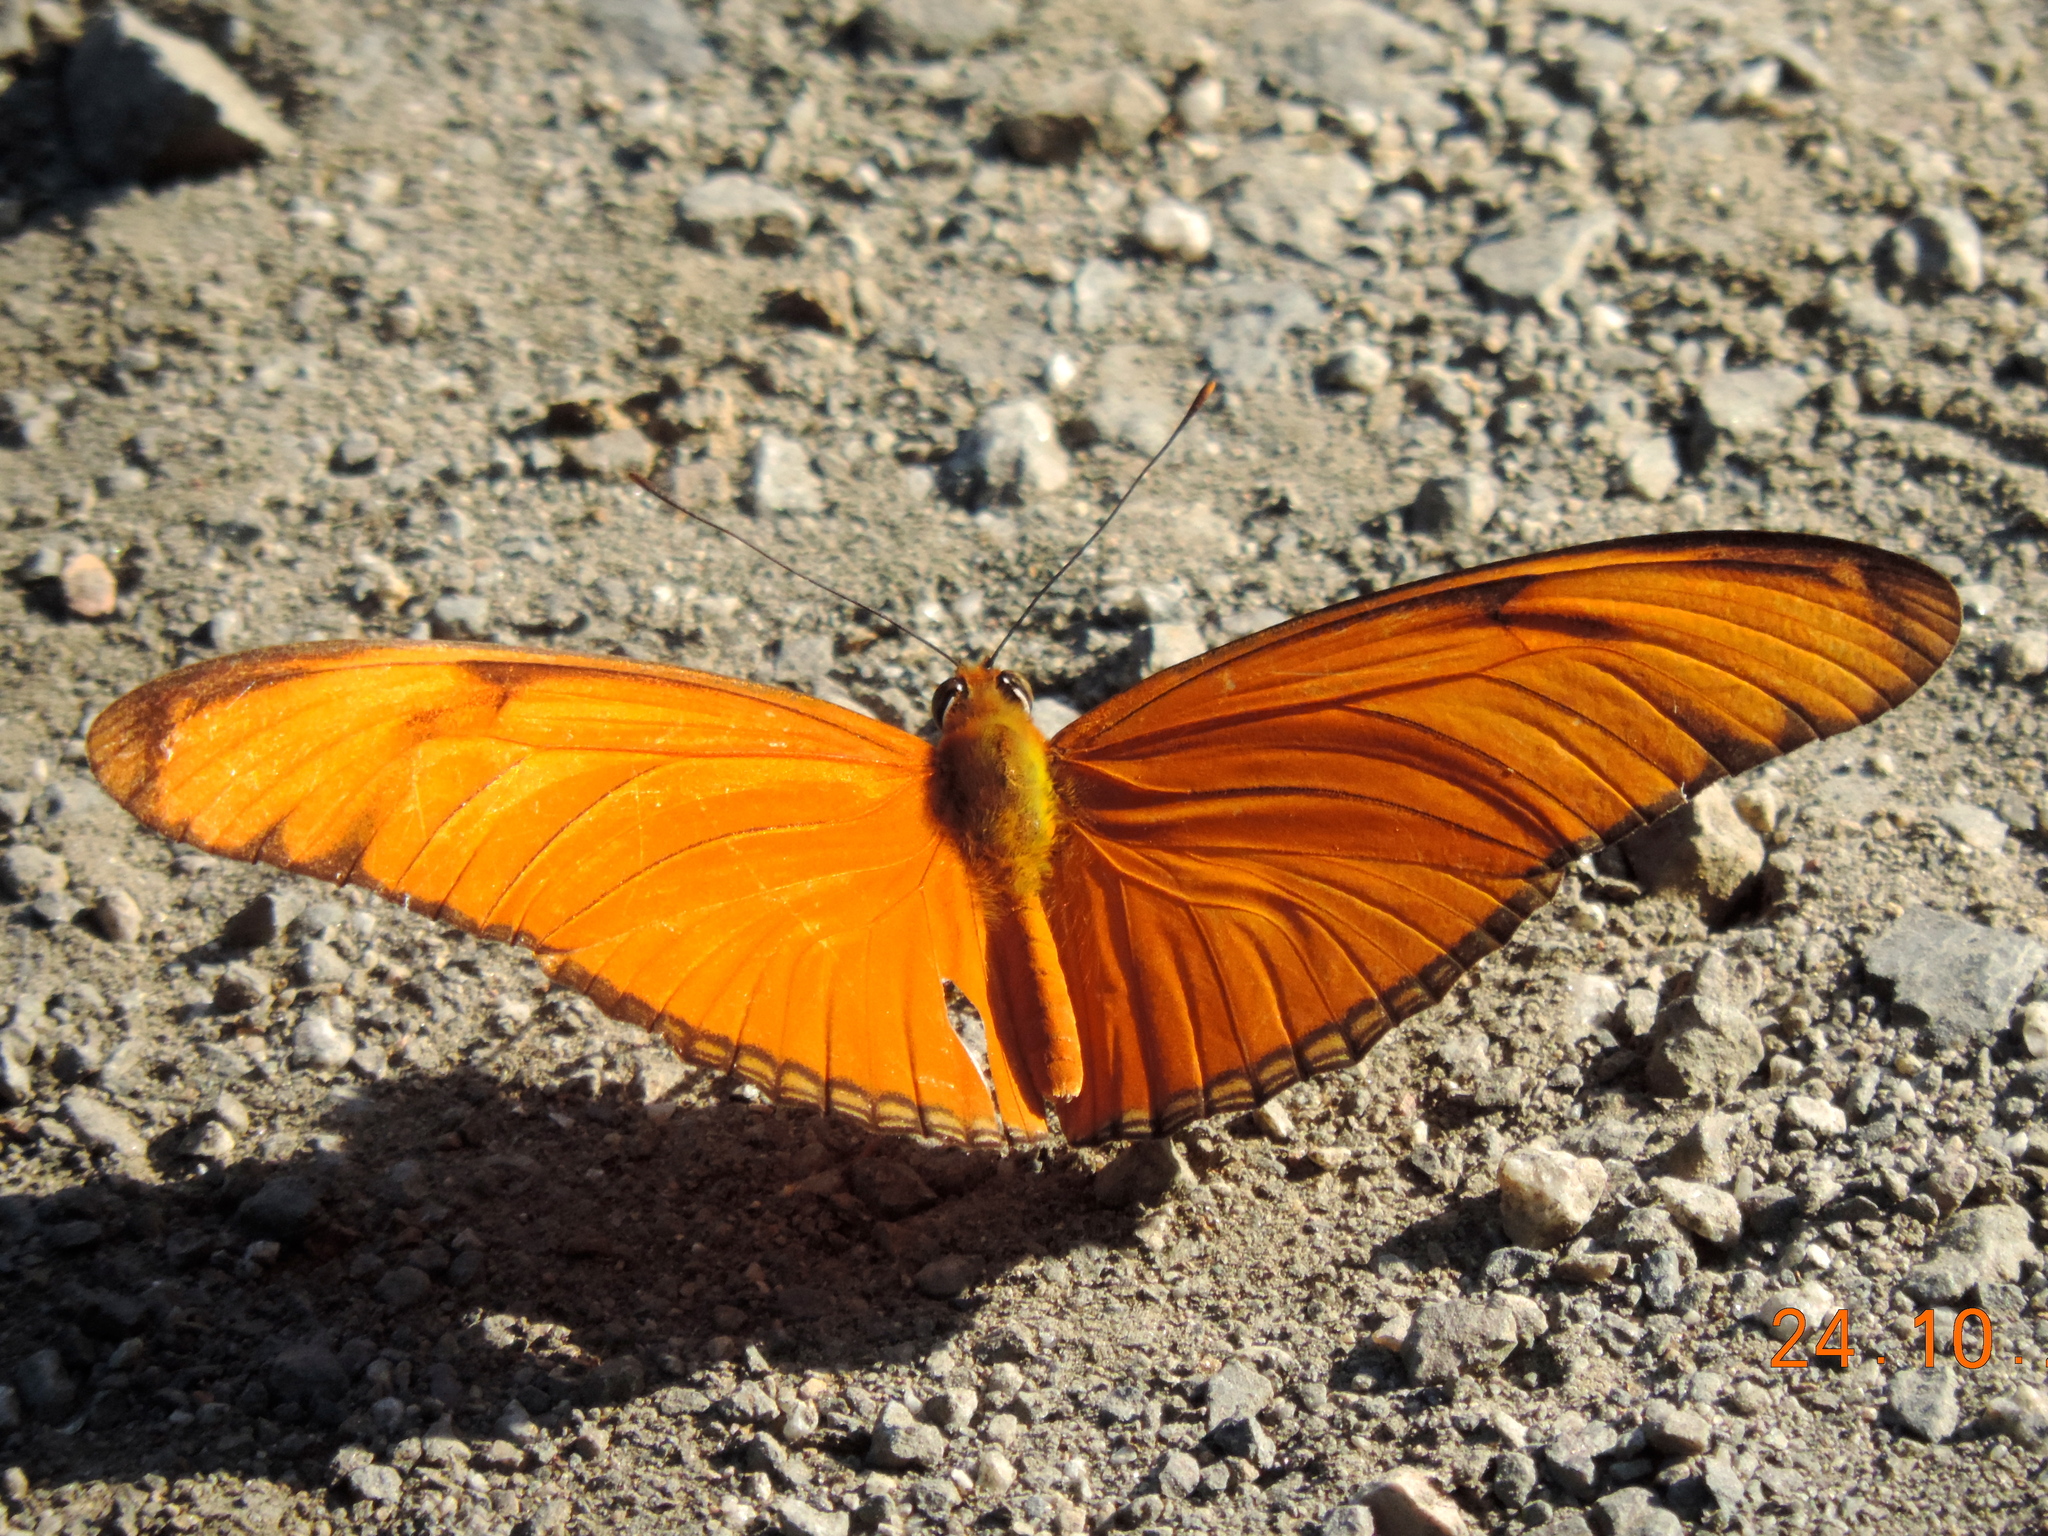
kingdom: Animalia
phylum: Arthropoda
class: Insecta
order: Lepidoptera
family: Nymphalidae
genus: Dryas
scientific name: Dryas iulia
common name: Flambeau
